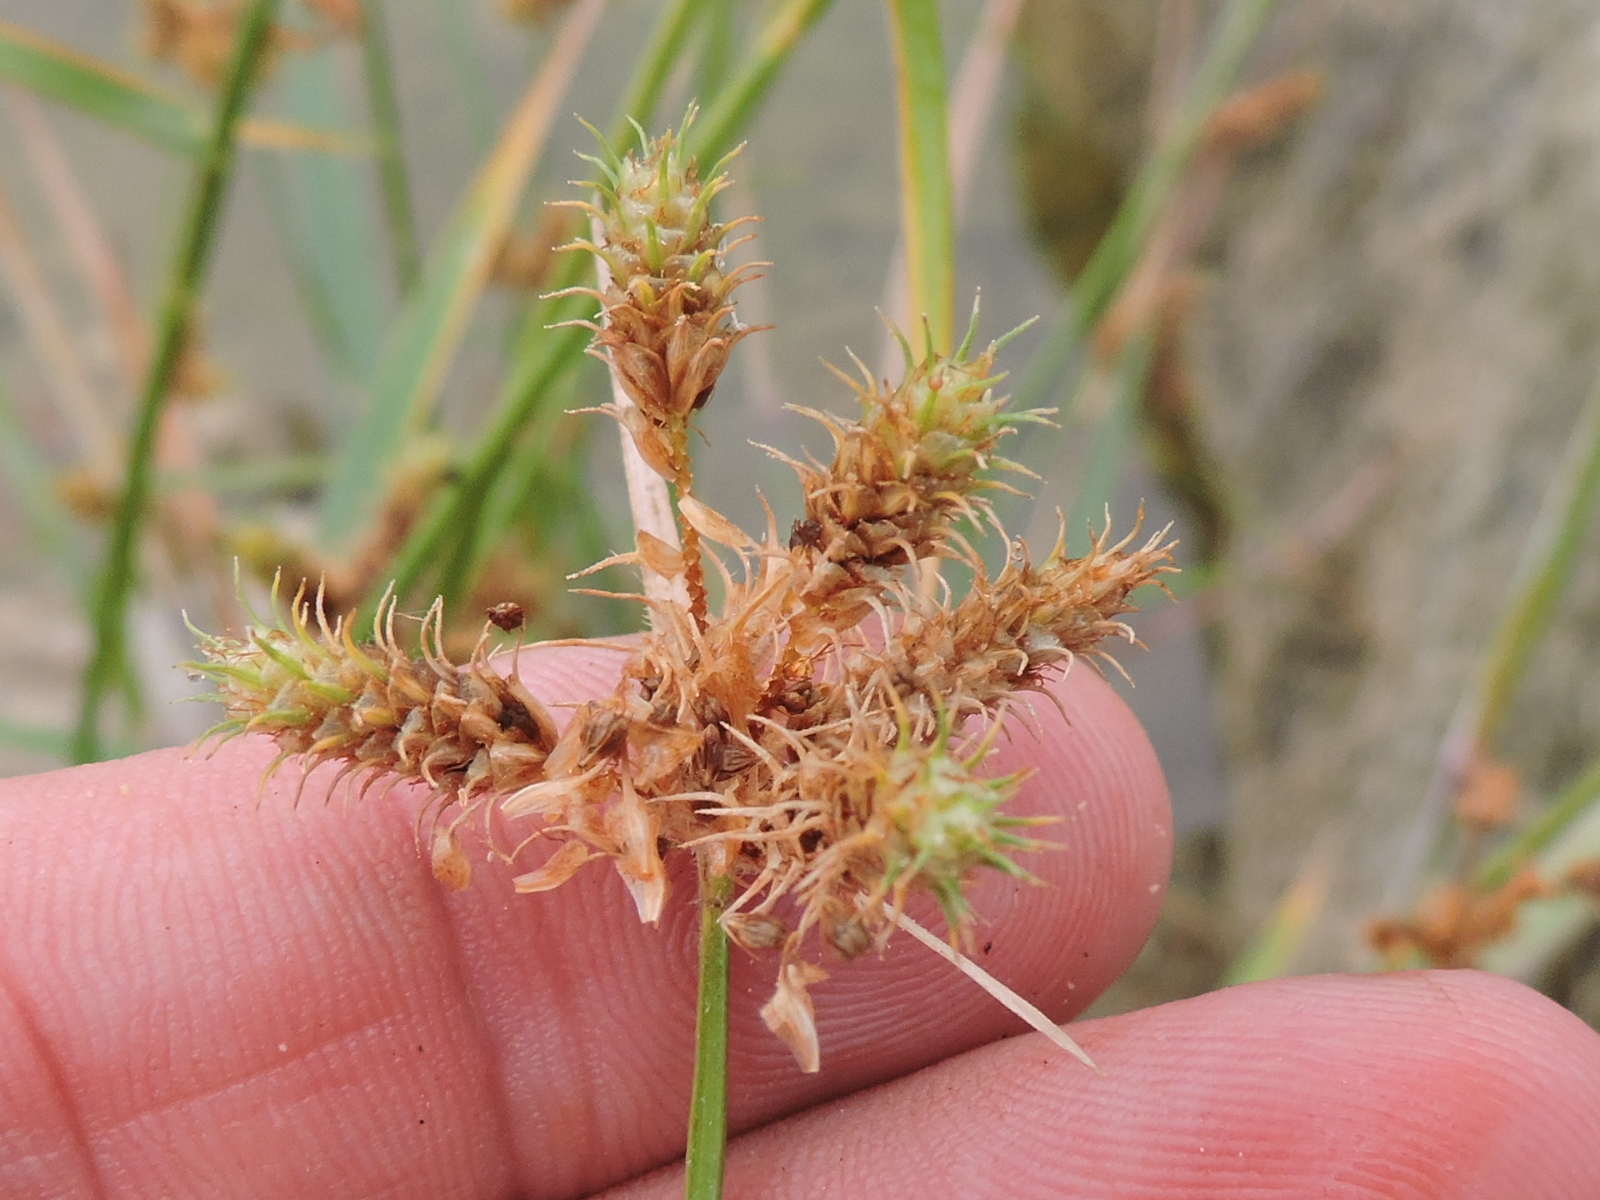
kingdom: Plantae
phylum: Tracheophyta
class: Liliopsida
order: Poales
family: Cyperaceae
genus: Fuirena
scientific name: Fuirena simplex
